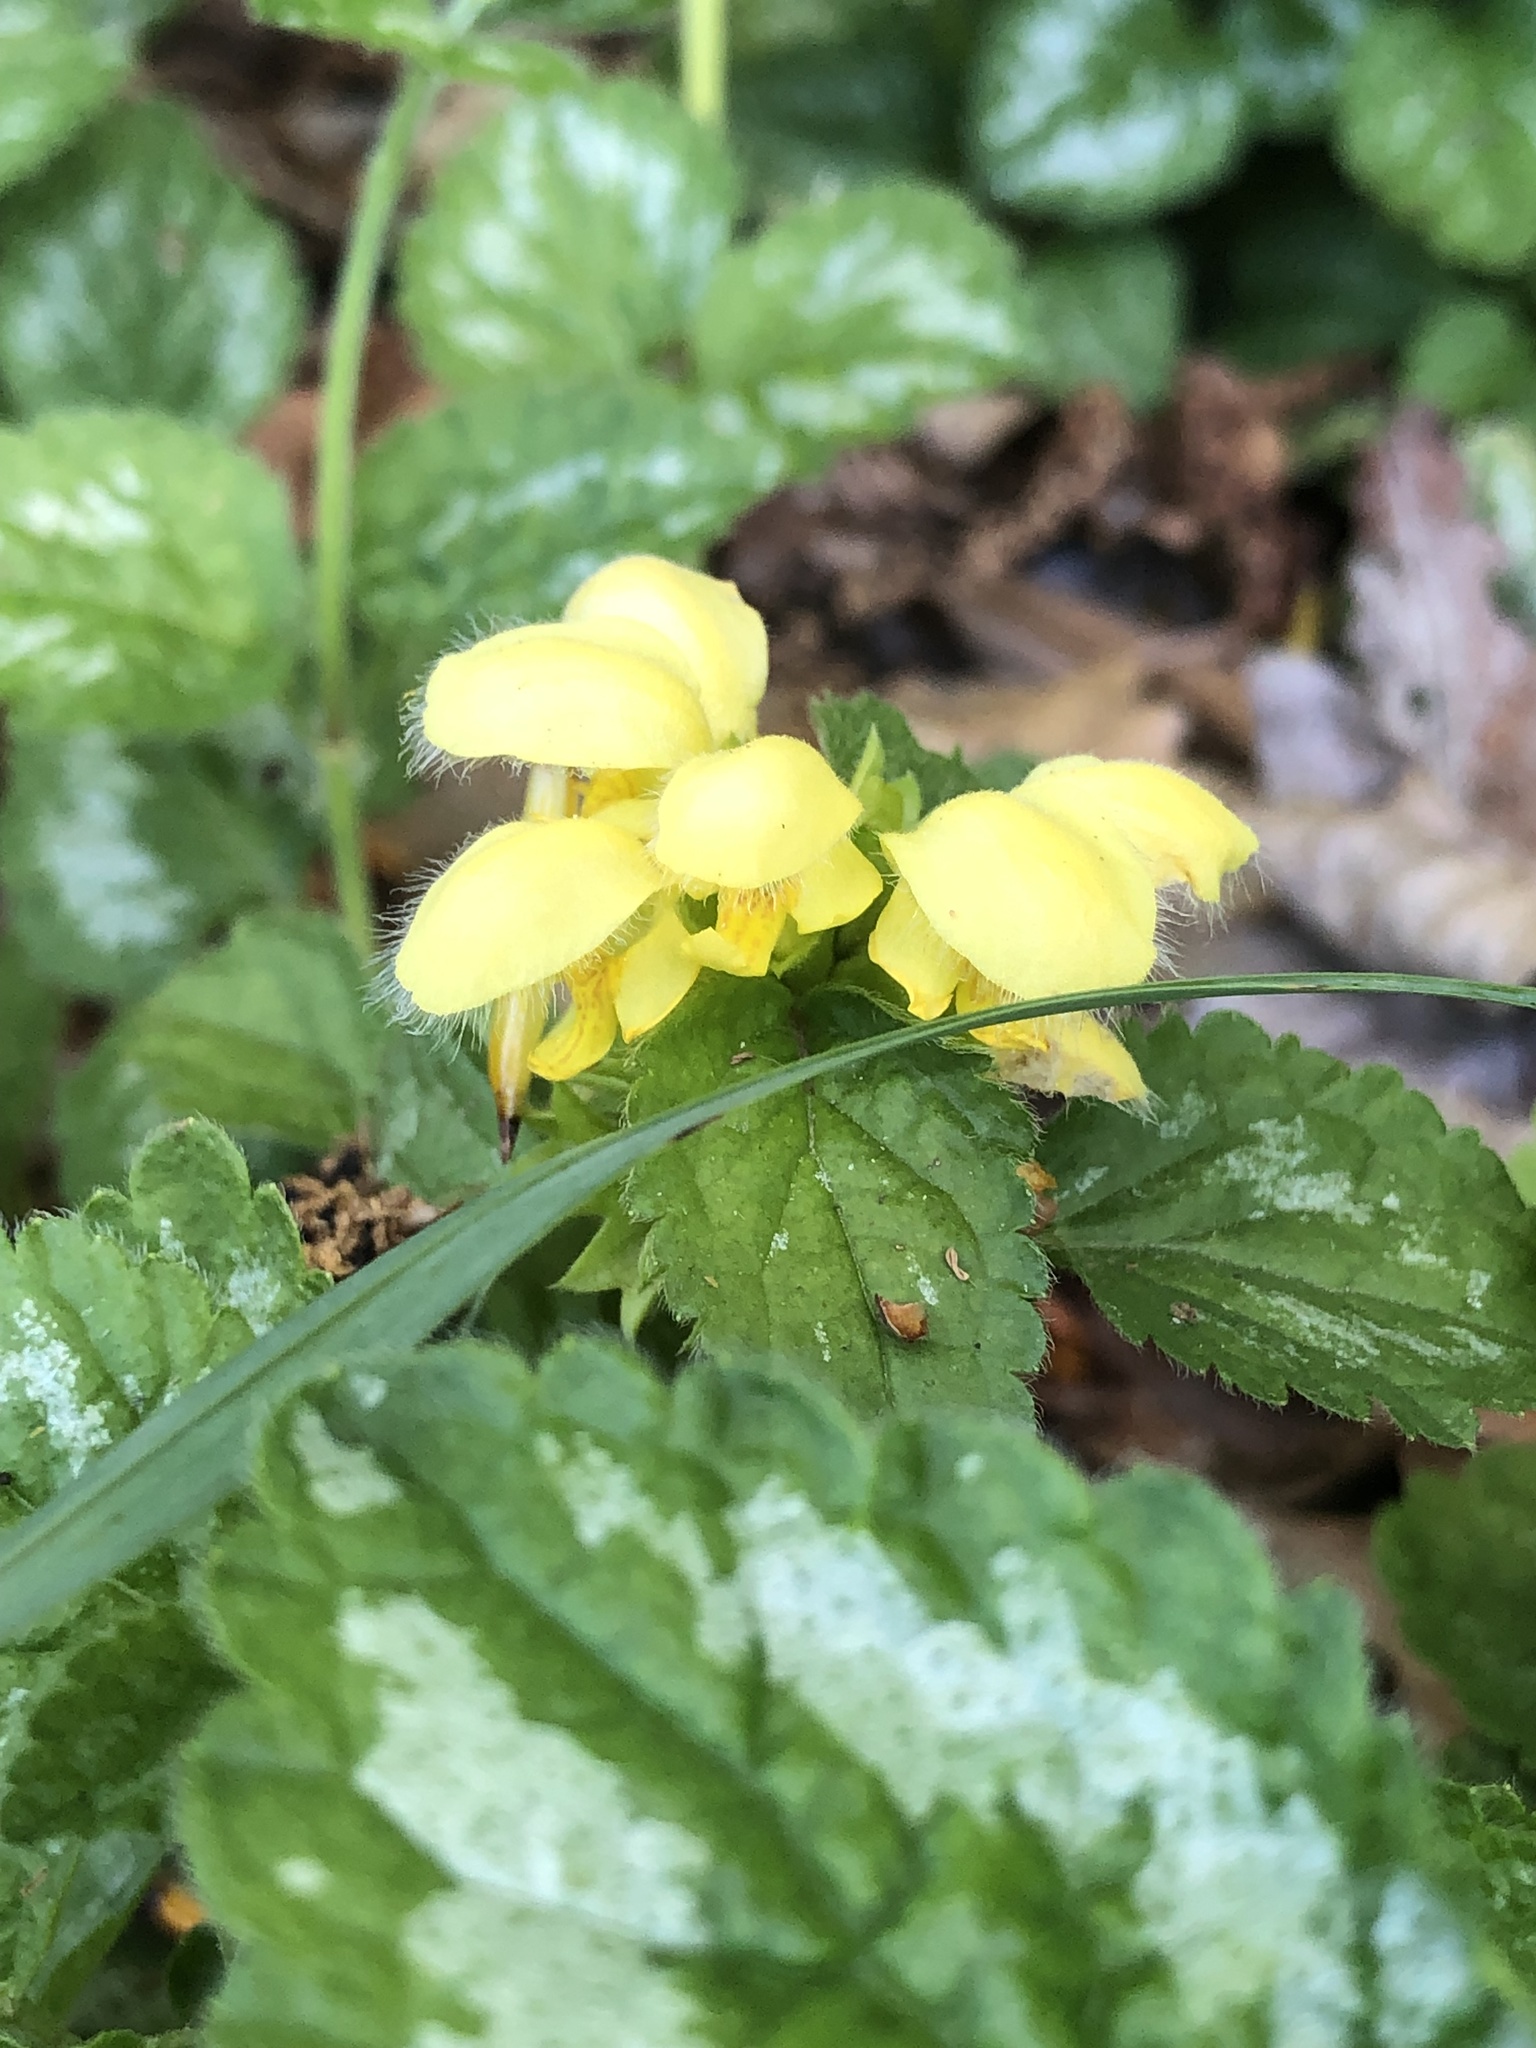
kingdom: Plantae
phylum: Tracheophyta
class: Magnoliopsida
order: Lamiales
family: Lamiaceae
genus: Lamium
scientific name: Lamium galeobdolon
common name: Yellow archangel
